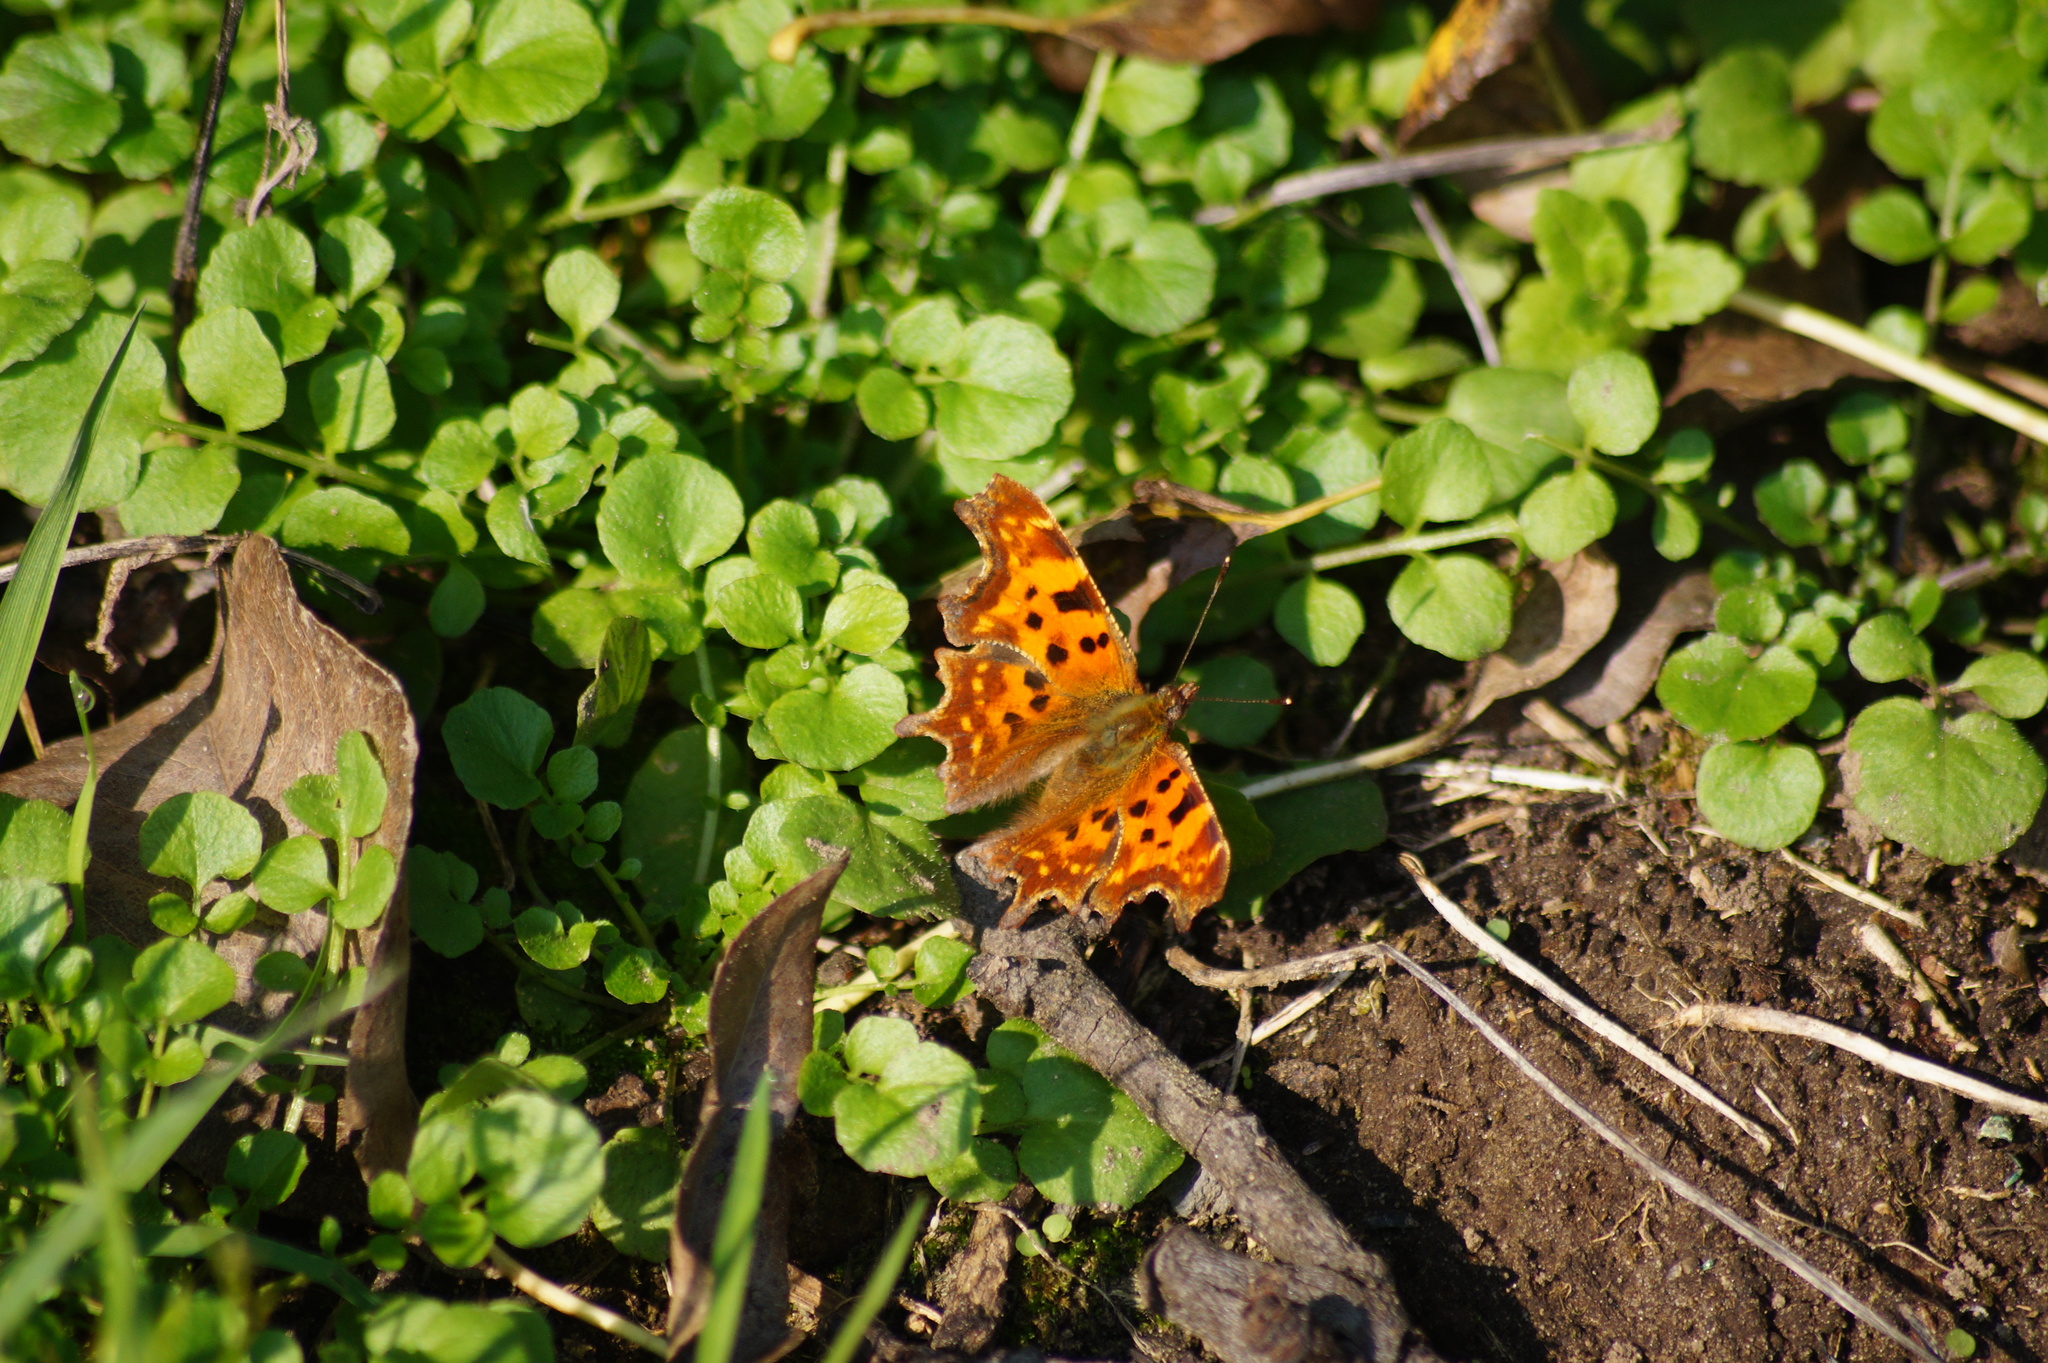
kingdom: Animalia
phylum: Arthropoda
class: Insecta
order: Lepidoptera
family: Nymphalidae
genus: Polygonia
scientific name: Polygonia c-album
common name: Comma
